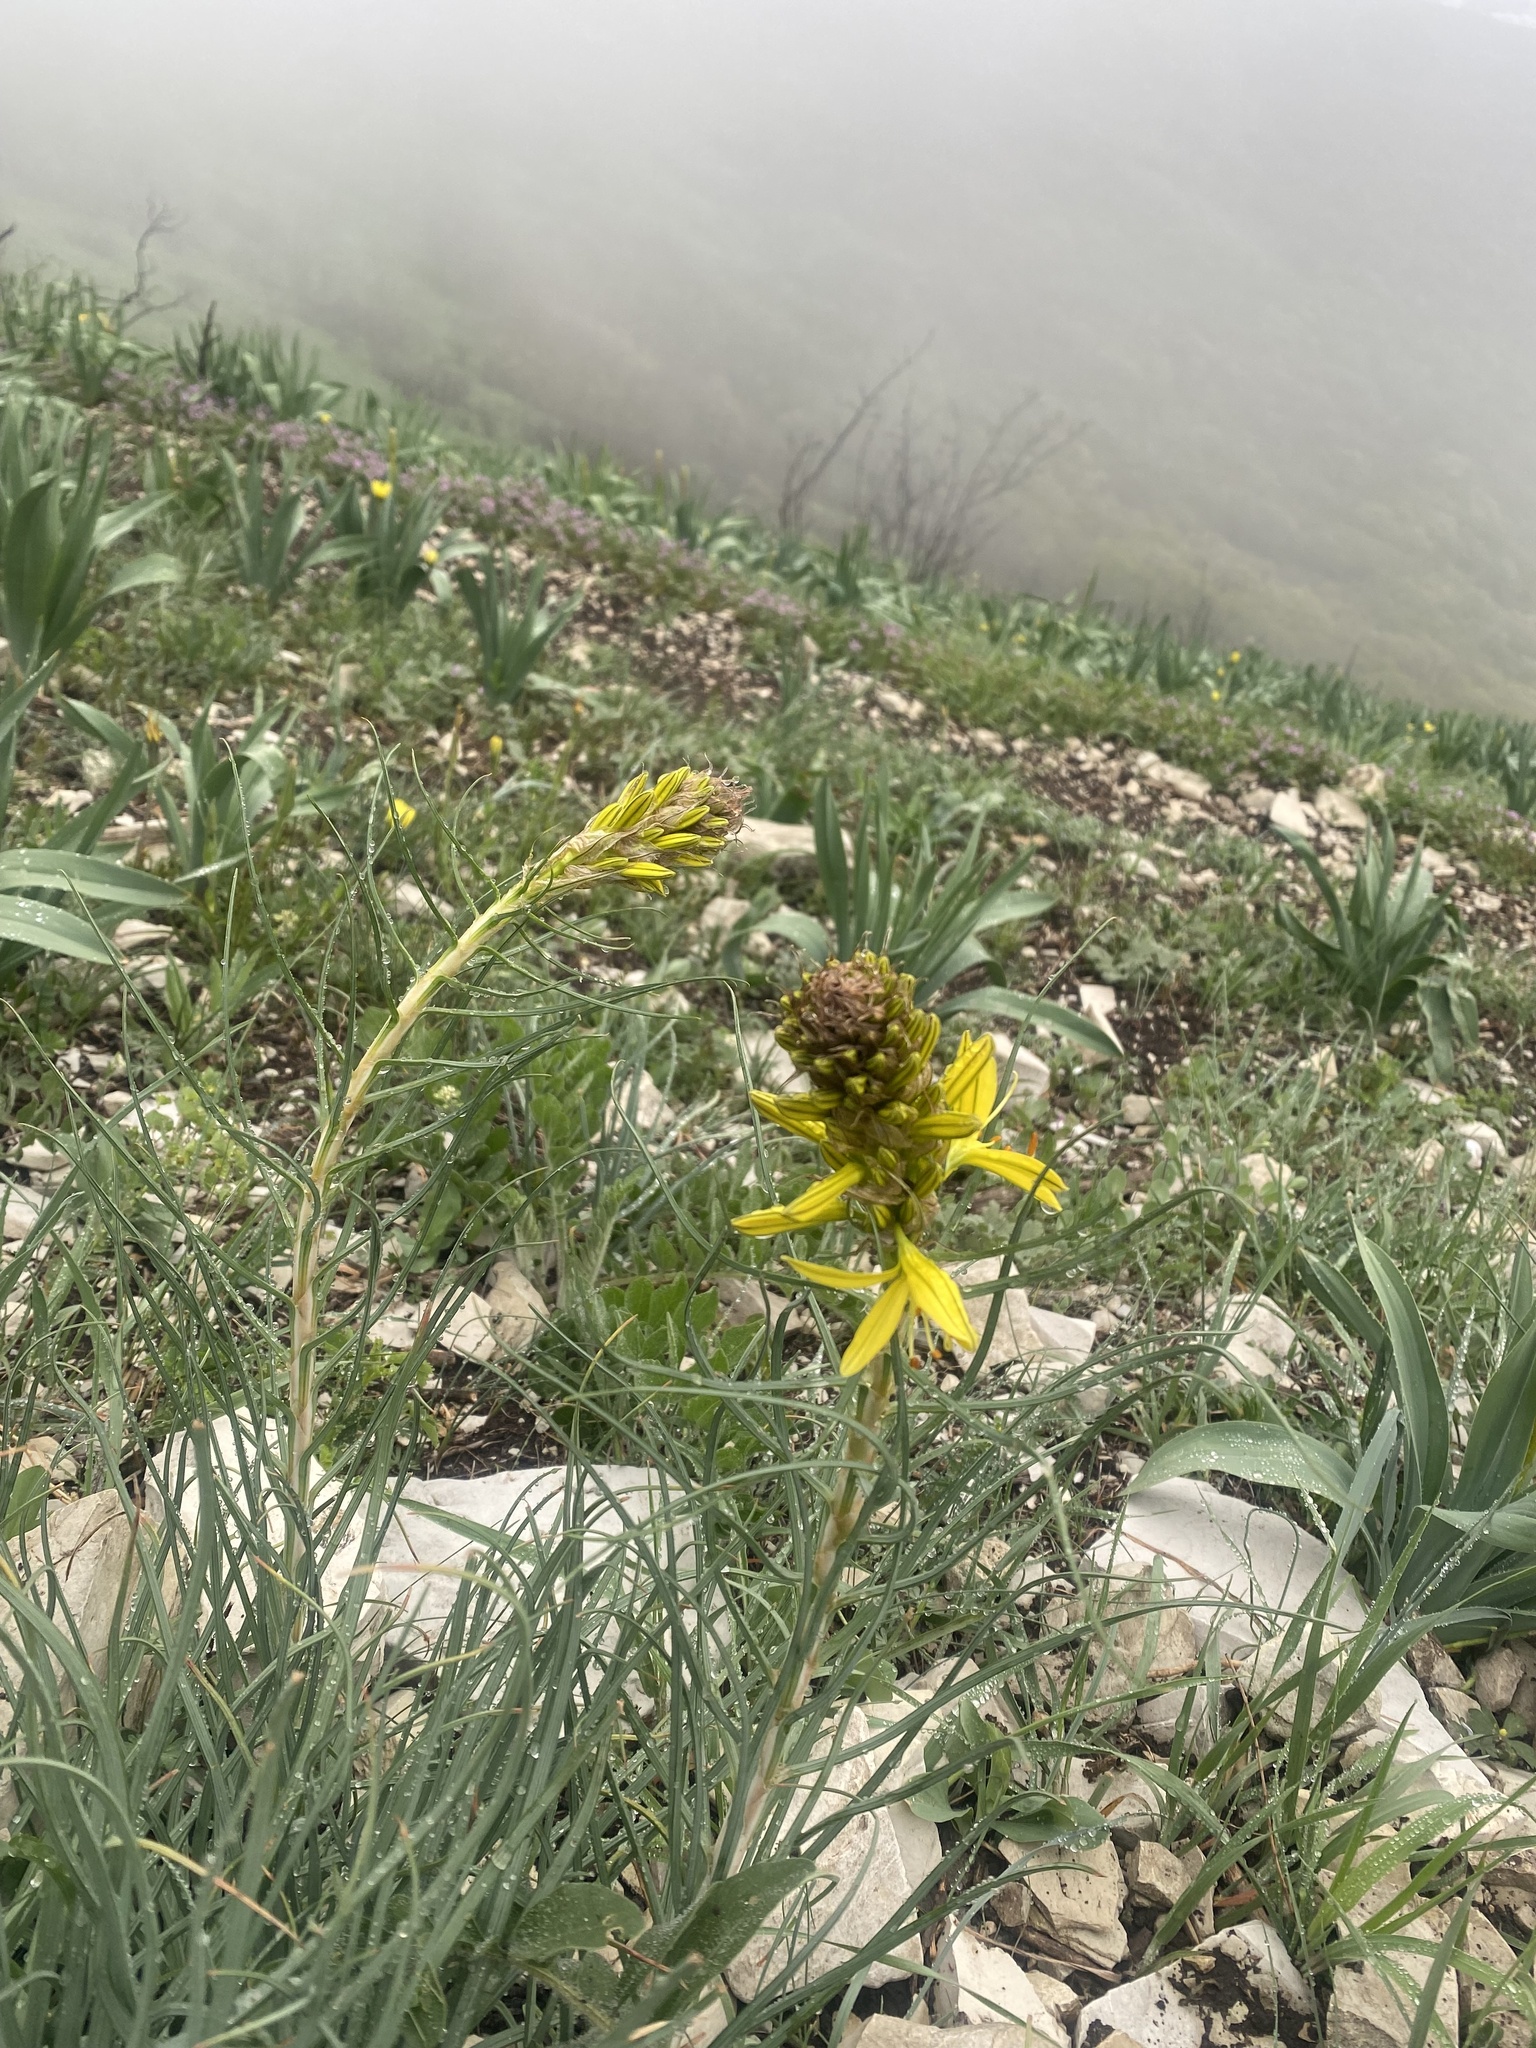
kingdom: Plantae
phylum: Tracheophyta
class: Liliopsida
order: Asparagales
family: Asphodelaceae
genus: Asphodeline
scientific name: Asphodeline lutea
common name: Yellow asphodel
